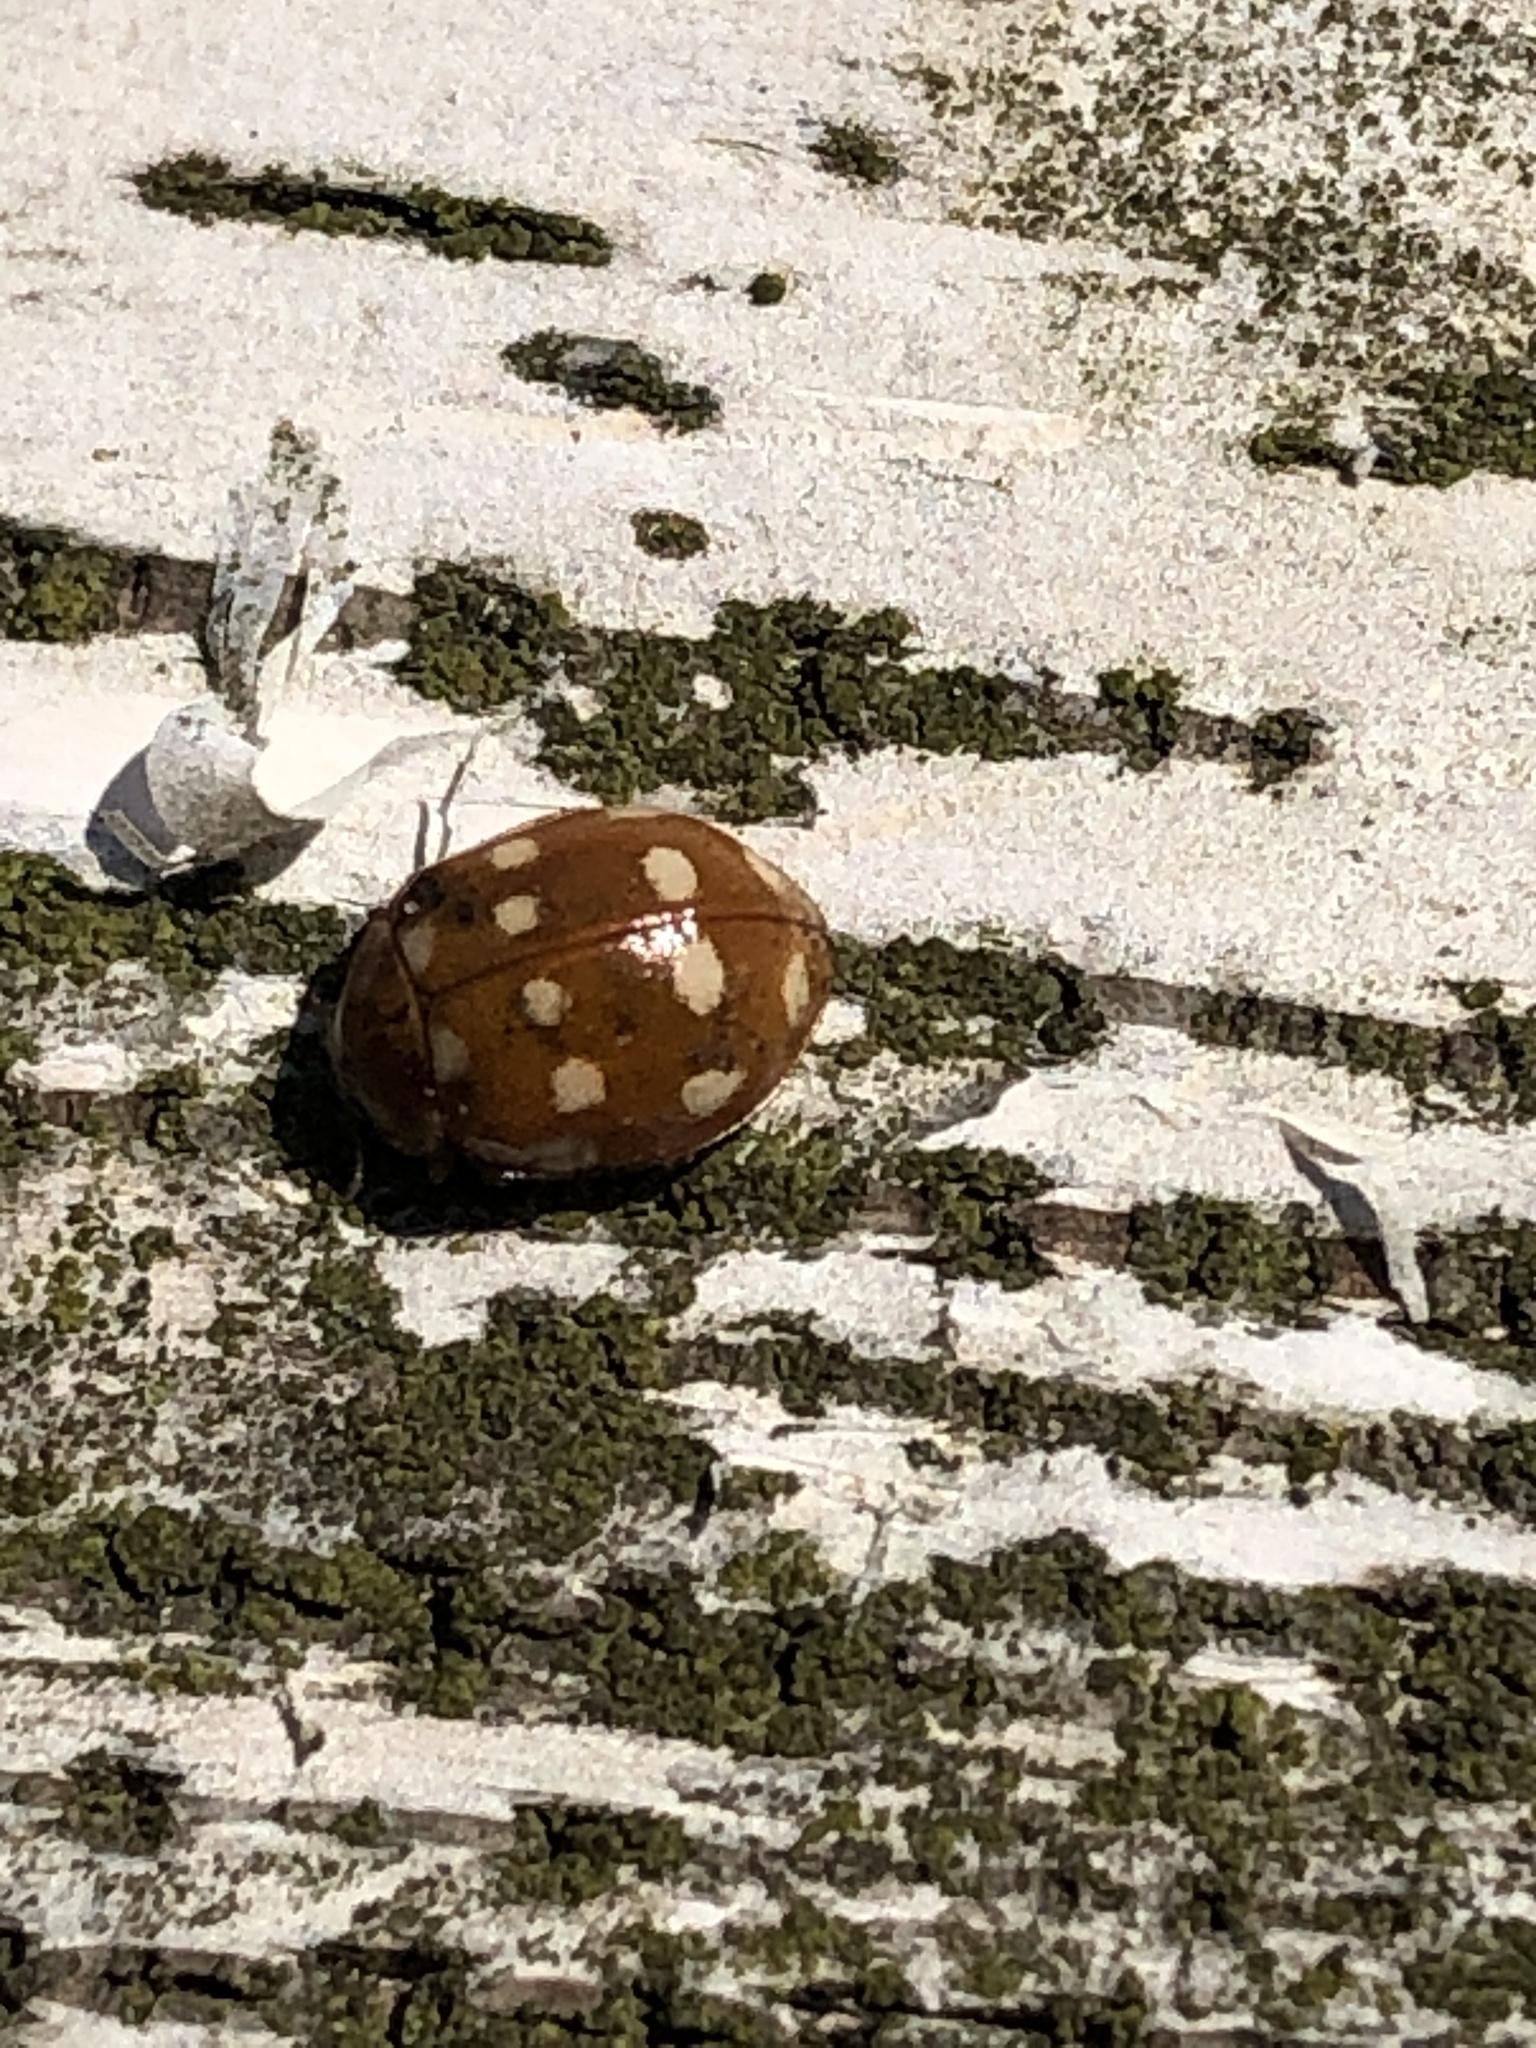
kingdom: Animalia
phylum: Arthropoda
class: Insecta
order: Coleoptera
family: Coccinellidae
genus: Calvia
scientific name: Calvia quatuordecimguttata
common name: Cream-spot ladybird
